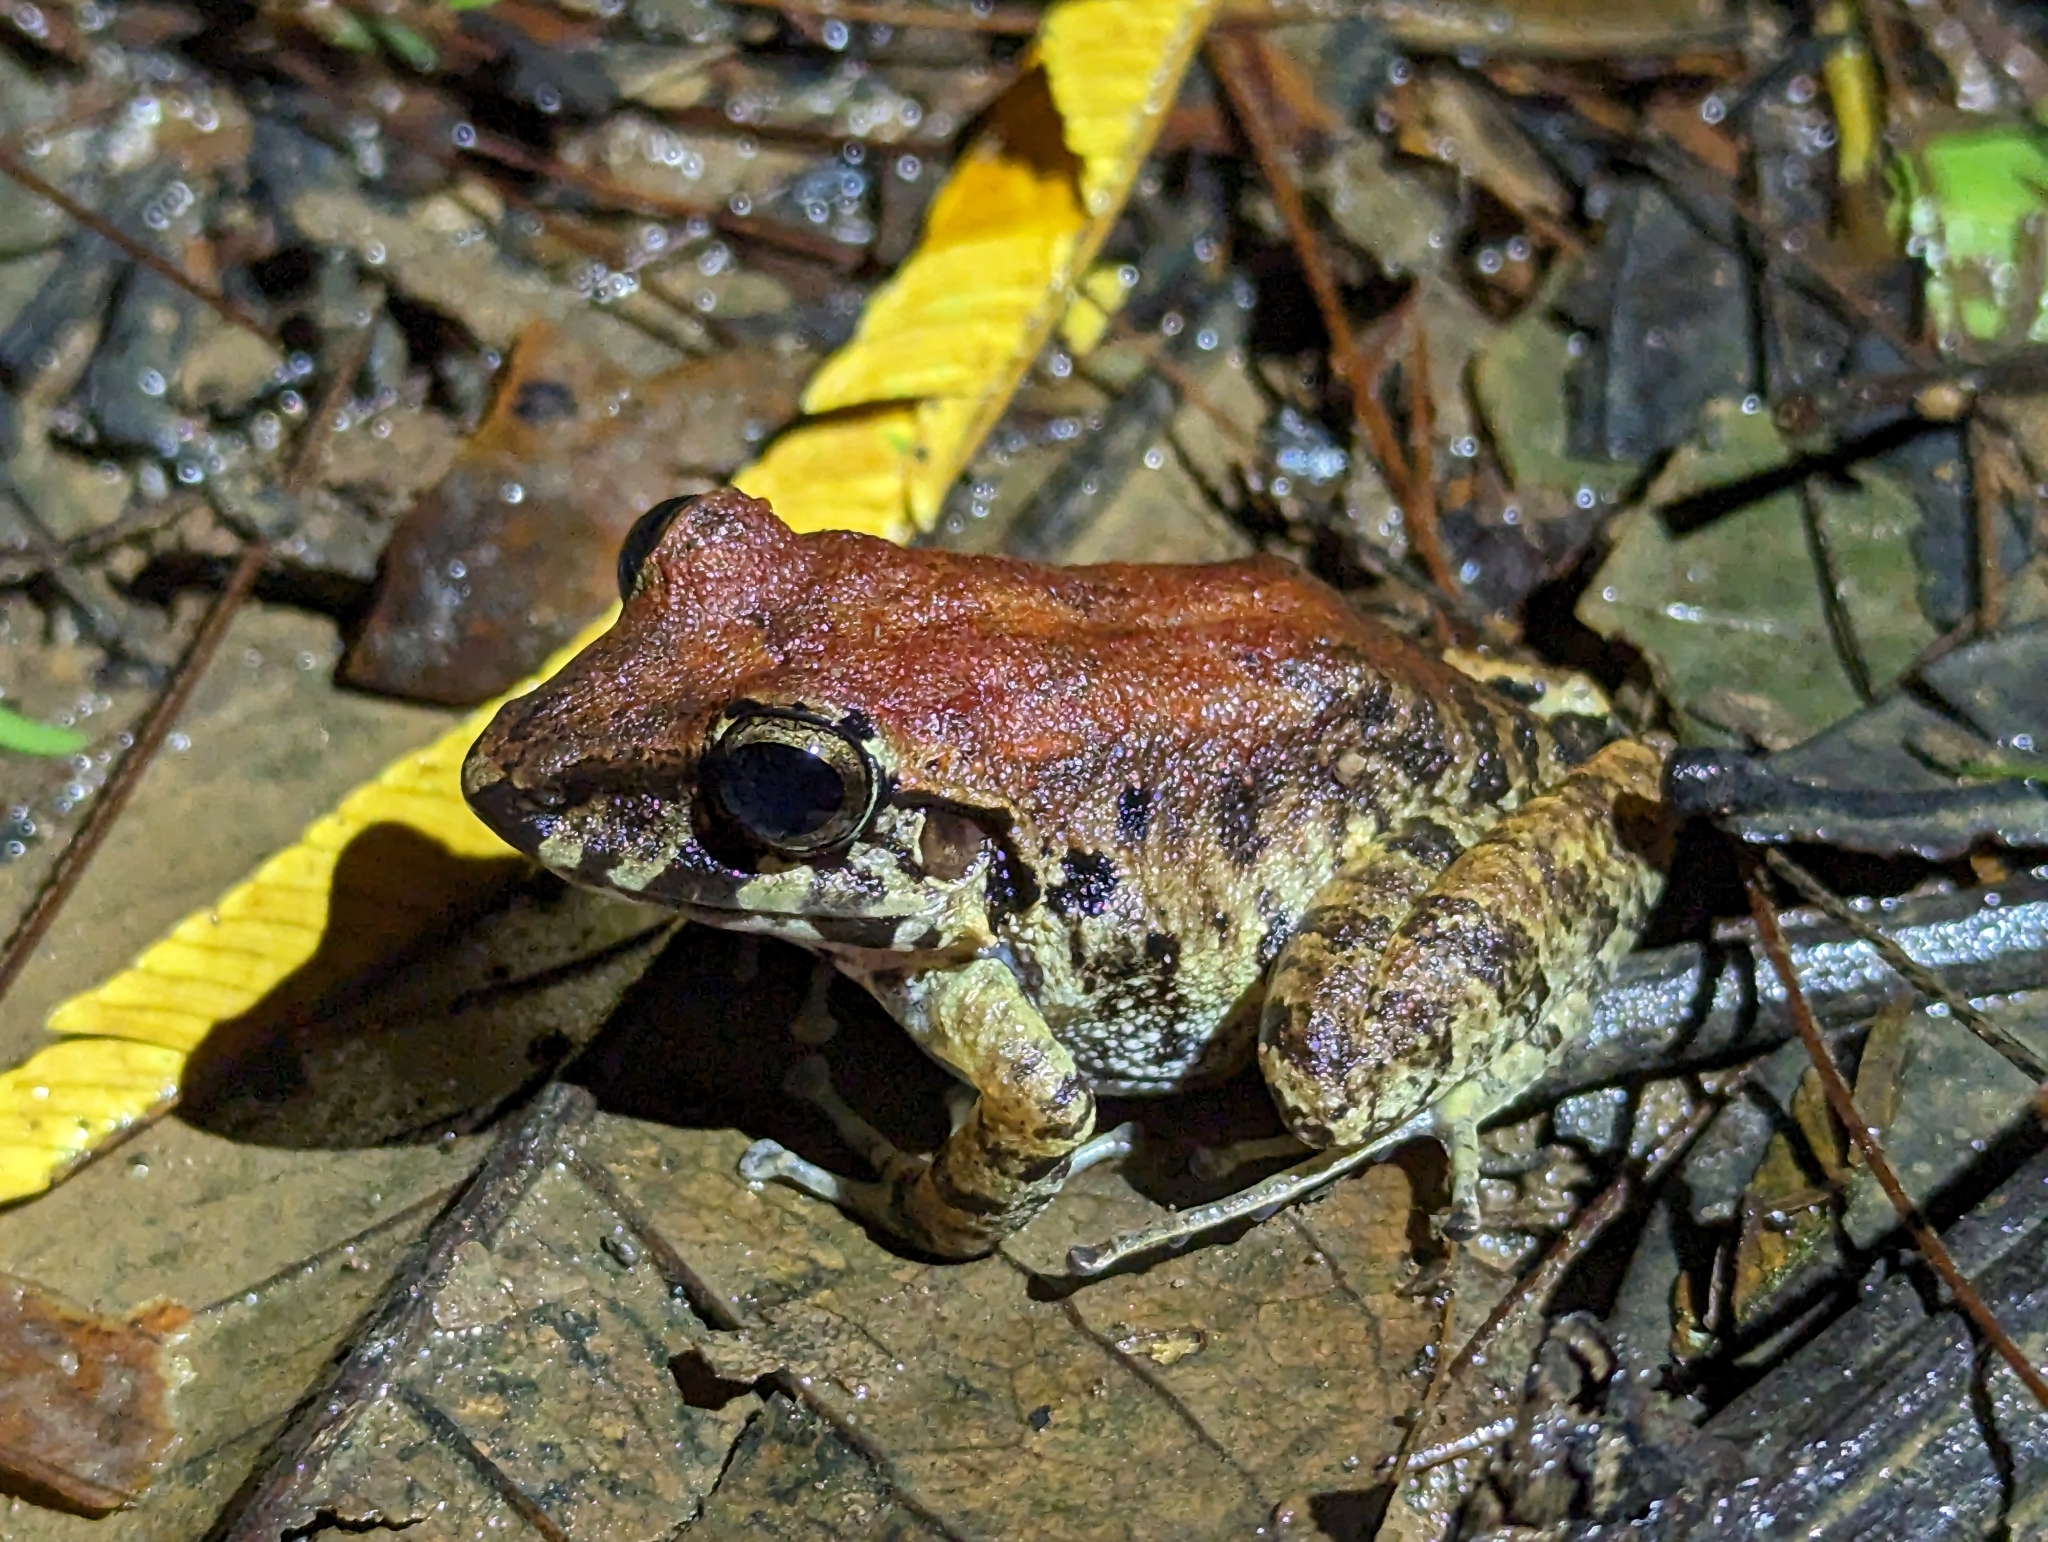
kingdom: Animalia
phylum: Chordata
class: Amphibia
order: Anura
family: Craugastoridae
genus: Craugastor
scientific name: Craugastor fitzingeri
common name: Fitzinger's robber frog
